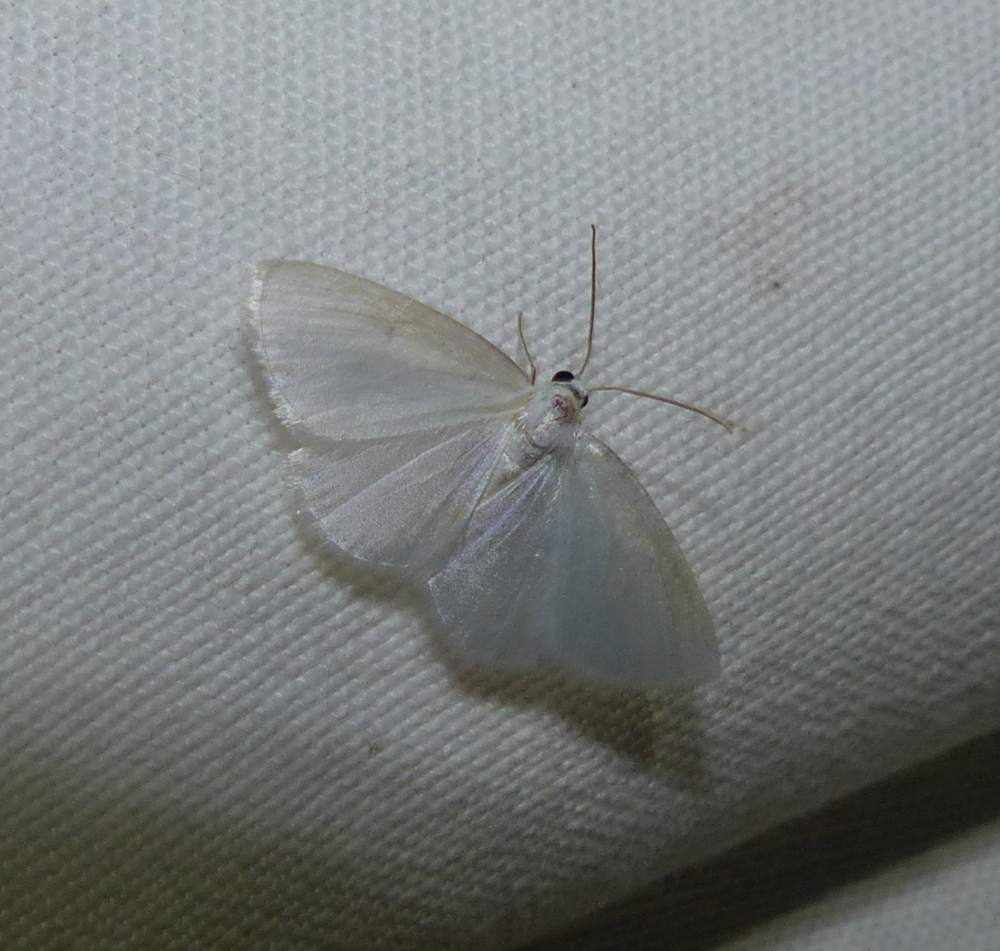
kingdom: Animalia
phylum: Arthropoda
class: Insecta
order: Lepidoptera
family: Geometridae
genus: Lomographa
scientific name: Lomographa vestaliata
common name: White spring moth
